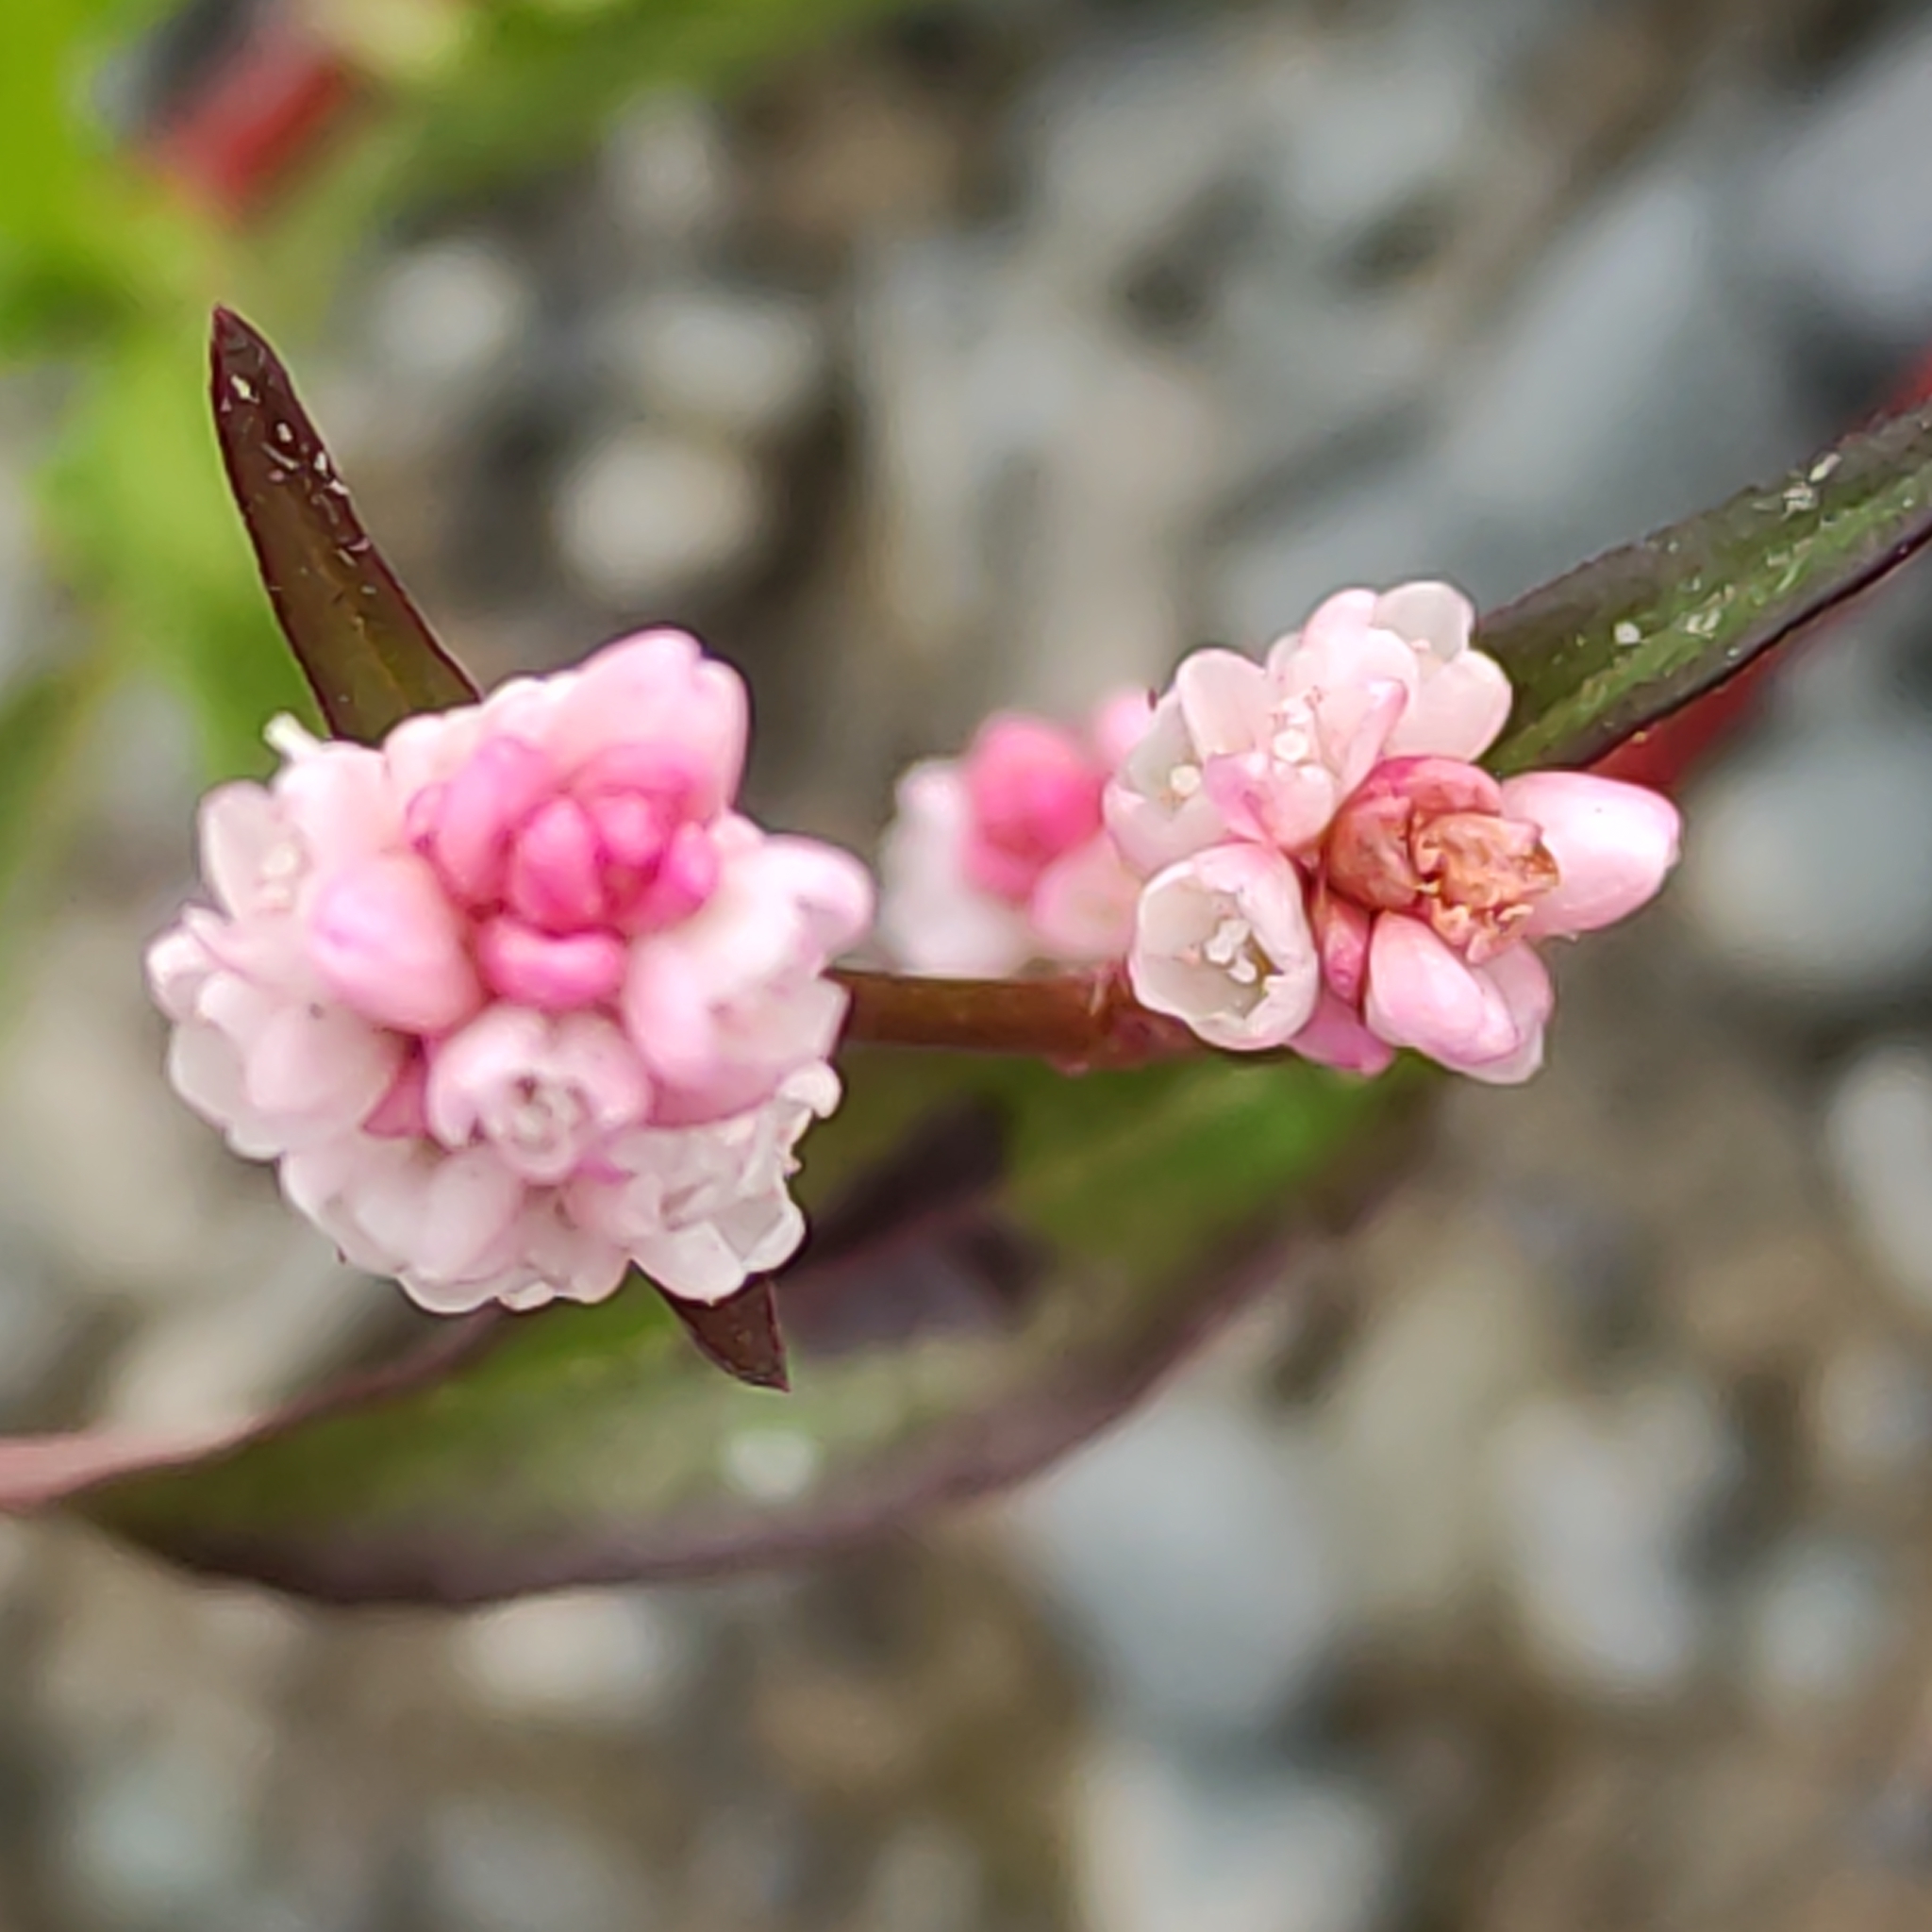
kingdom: Plantae
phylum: Tracheophyta
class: Magnoliopsida
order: Caryophyllales
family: Polygonaceae
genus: Persicaria
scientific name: Persicaria maculosa
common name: Redshank
